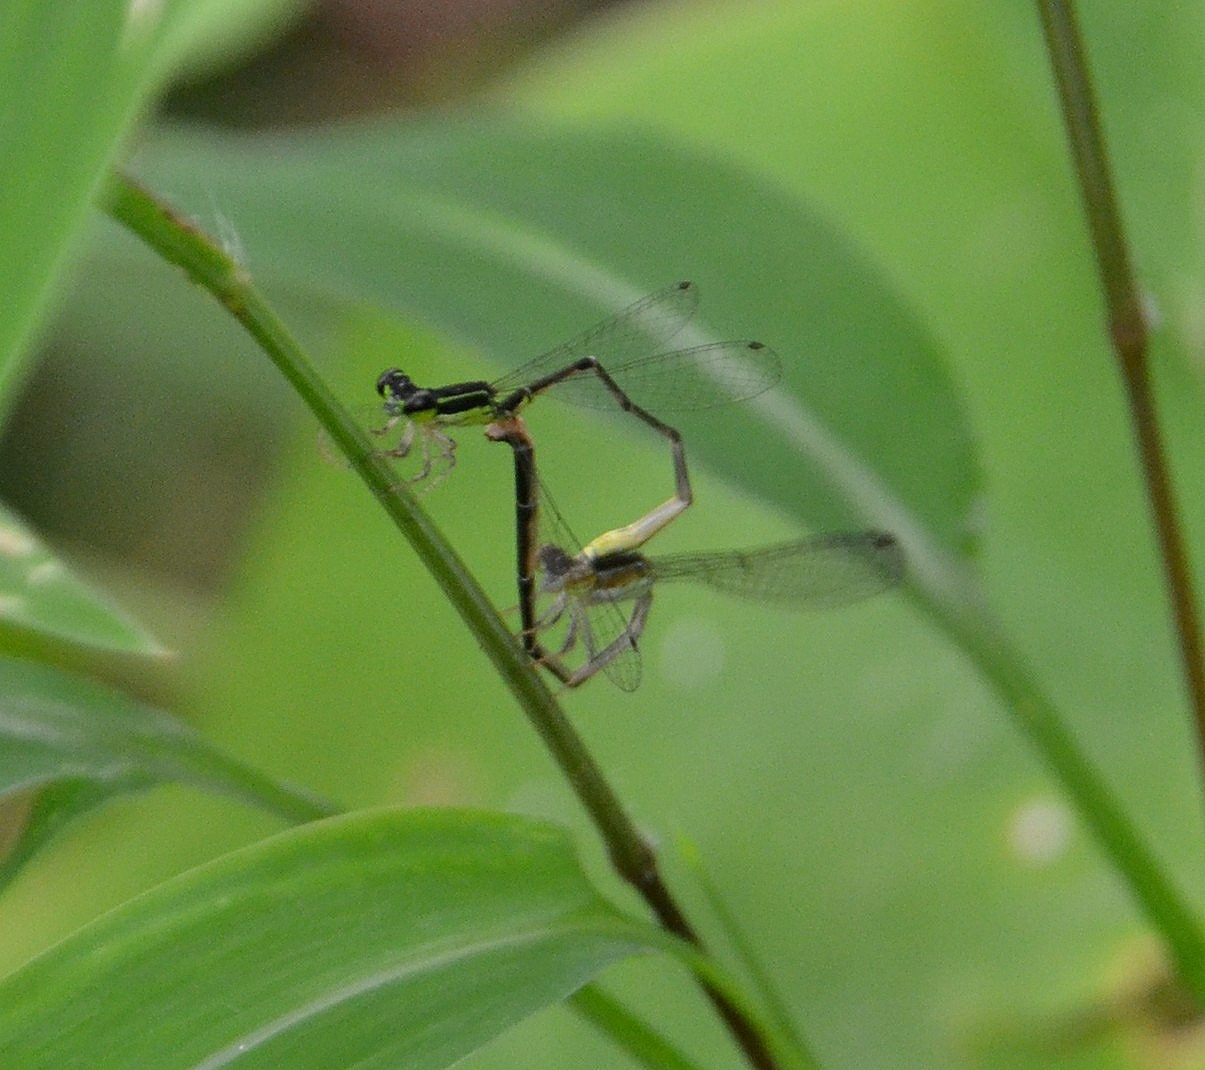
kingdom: Animalia
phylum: Arthropoda
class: Insecta
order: Odonata
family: Coenagrionidae
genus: Mortonagrion
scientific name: Mortonagrion varralli
